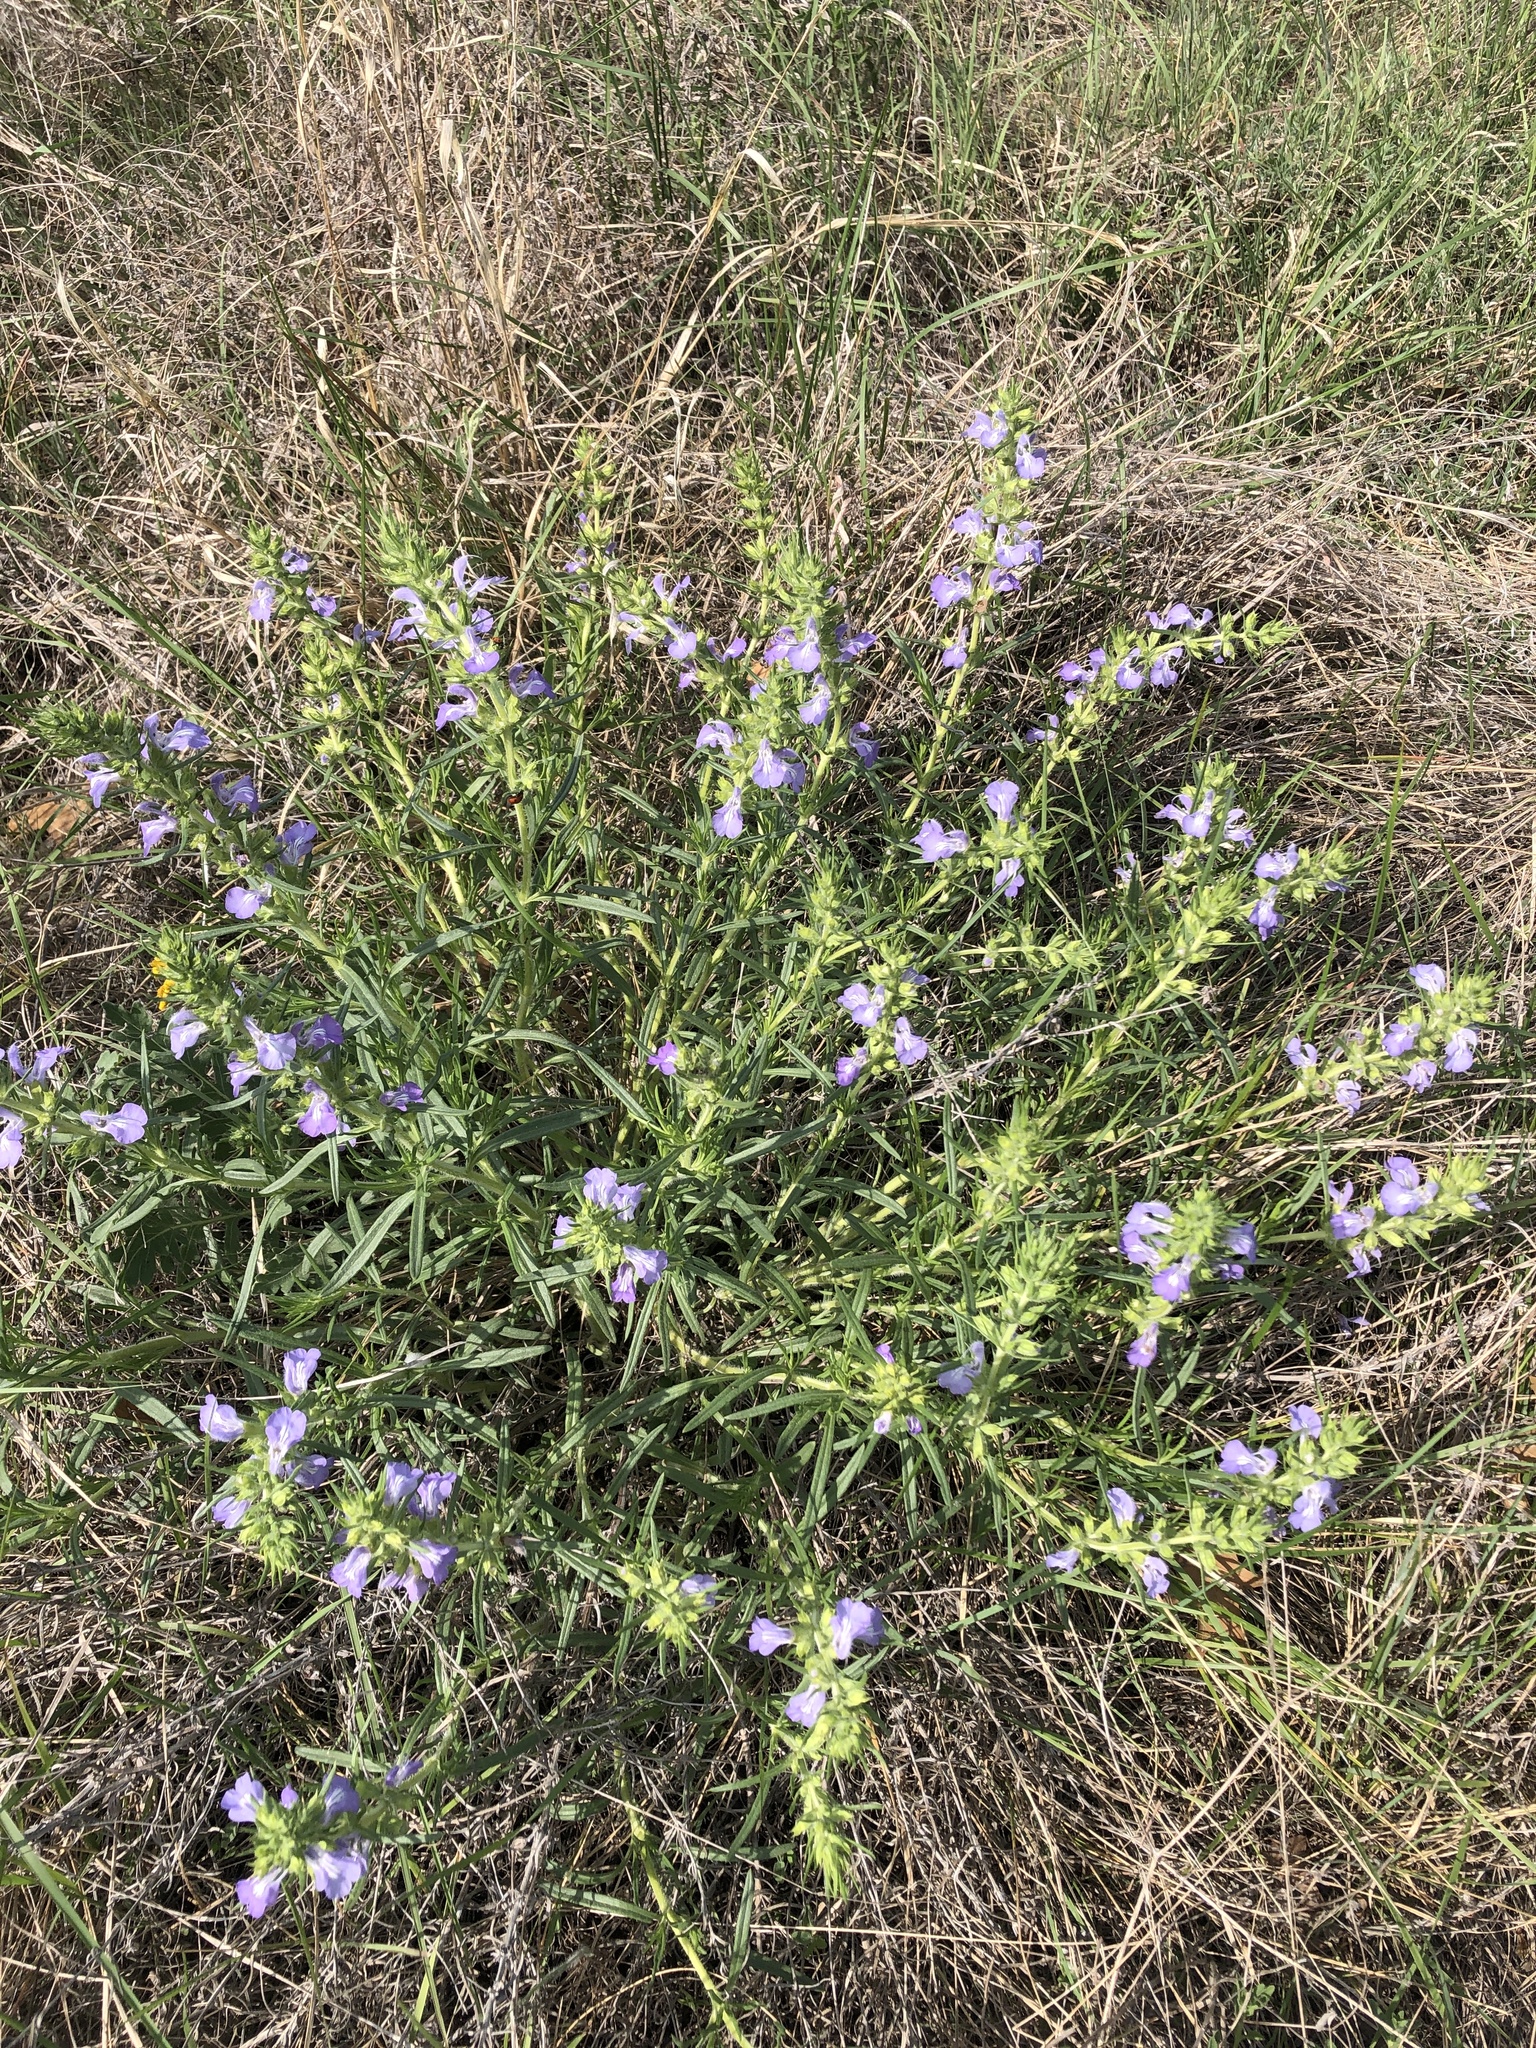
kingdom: Plantae
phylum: Tracheophyta
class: Magnoliopsida
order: Lamiales
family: Lamiaceae
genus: Salvia
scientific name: Salvia engelmannii
